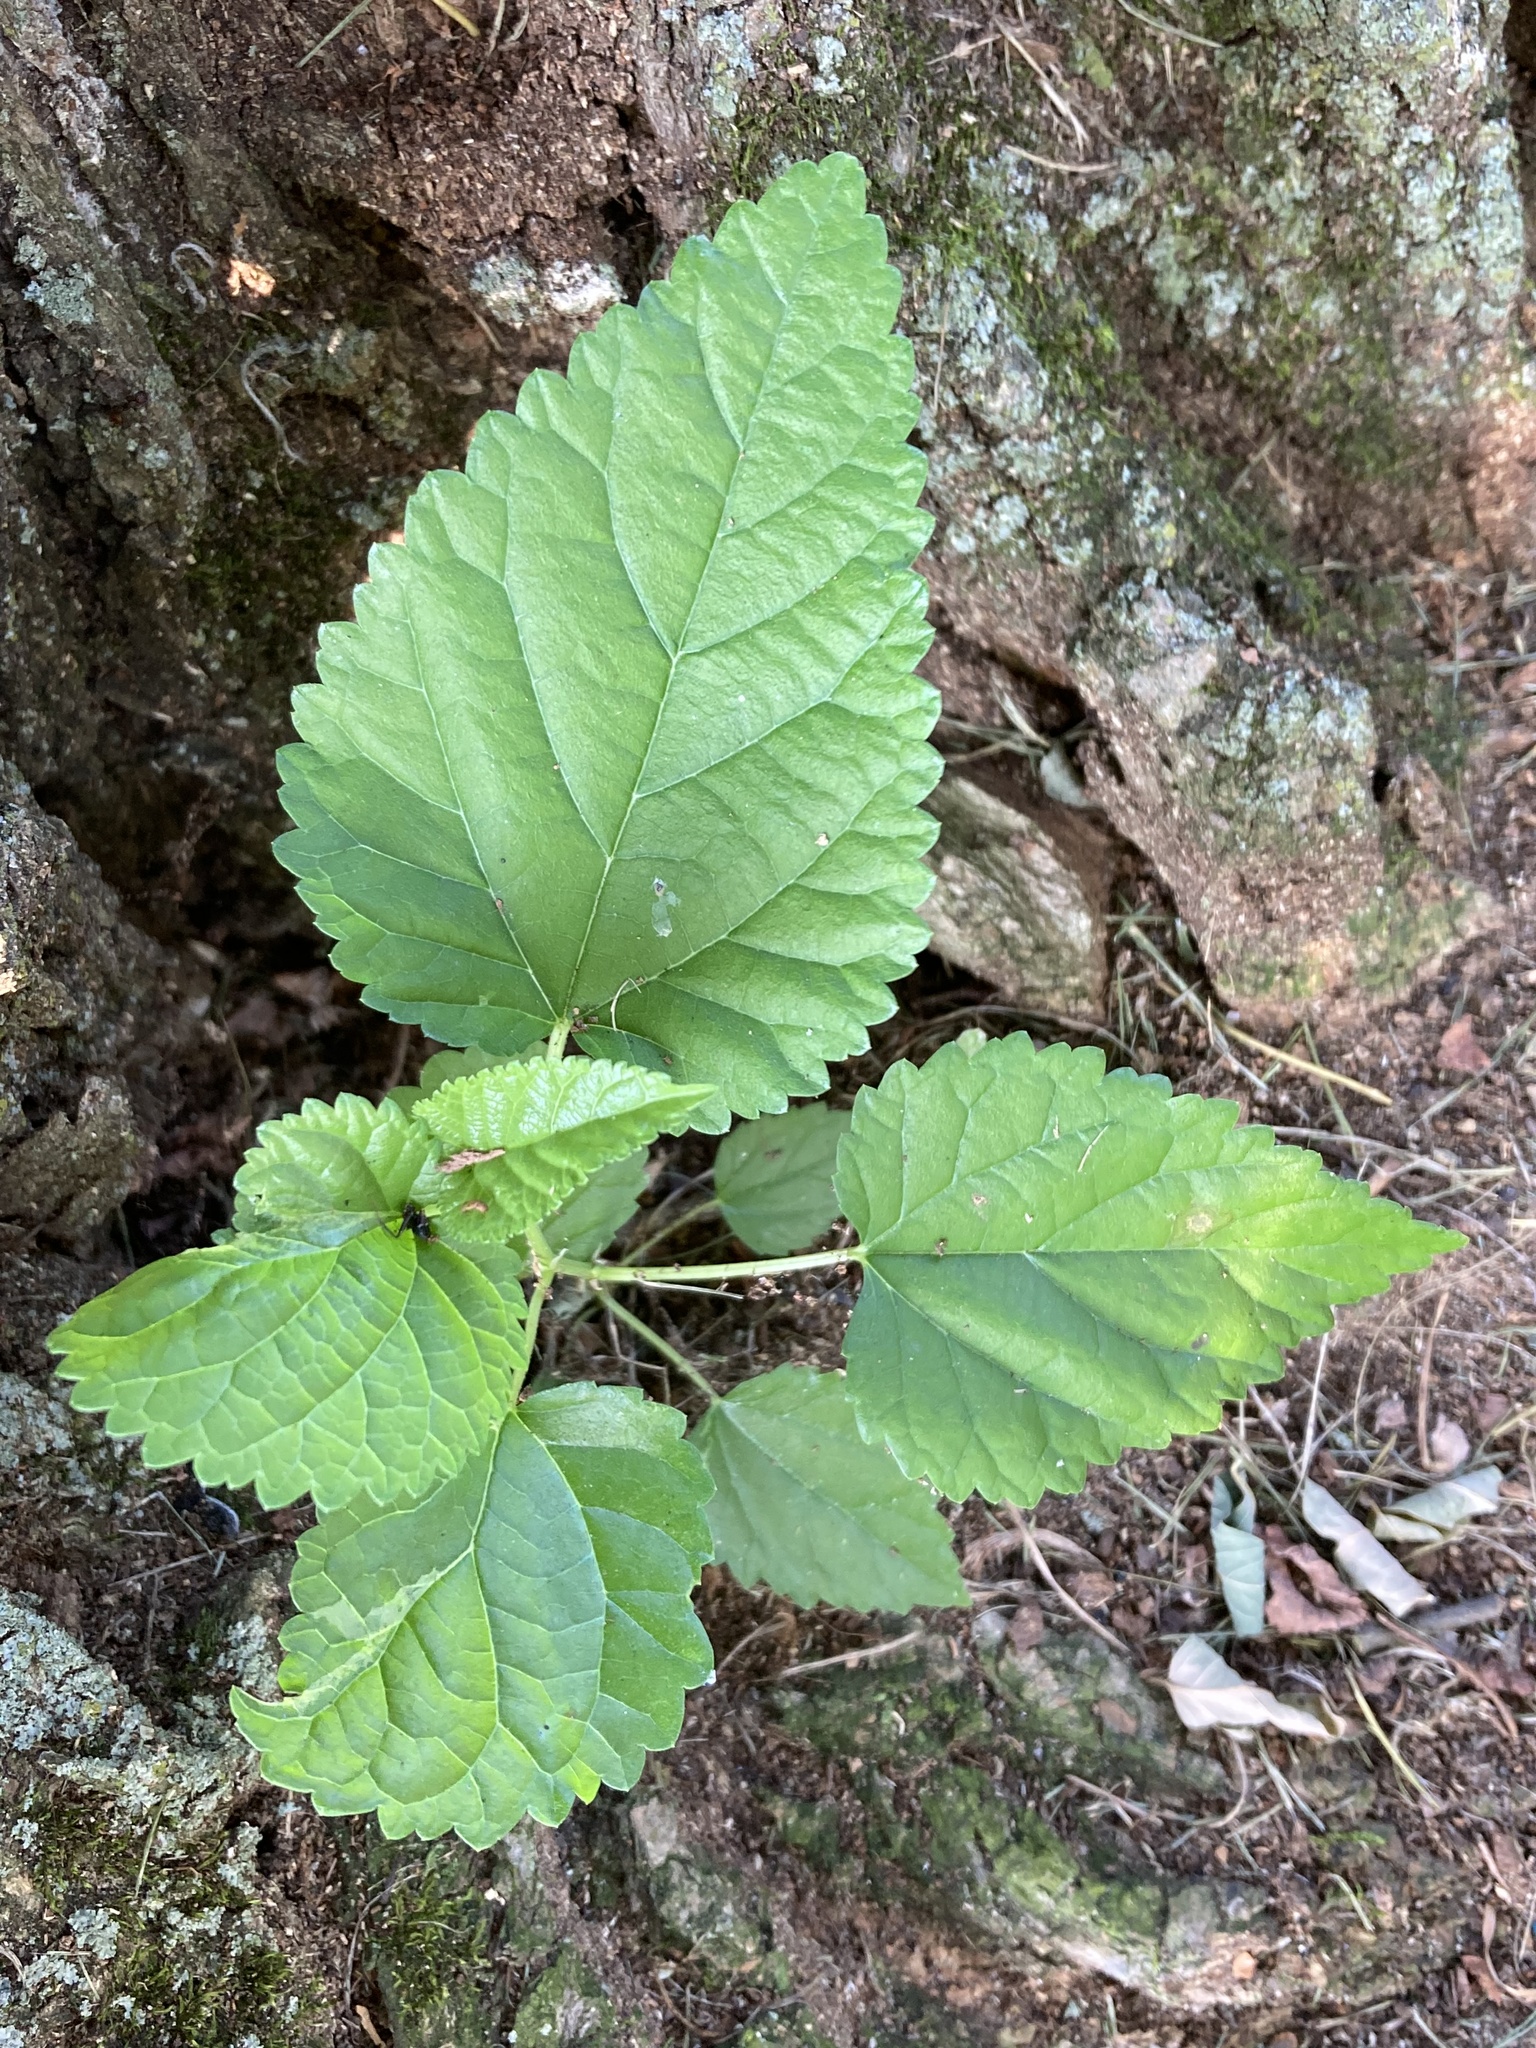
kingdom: Plantae
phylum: Tracheophyta
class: Magnoliopsida
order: Rosales
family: Moraceae
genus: Morus
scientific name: Morus rubra
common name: Red mulberry
